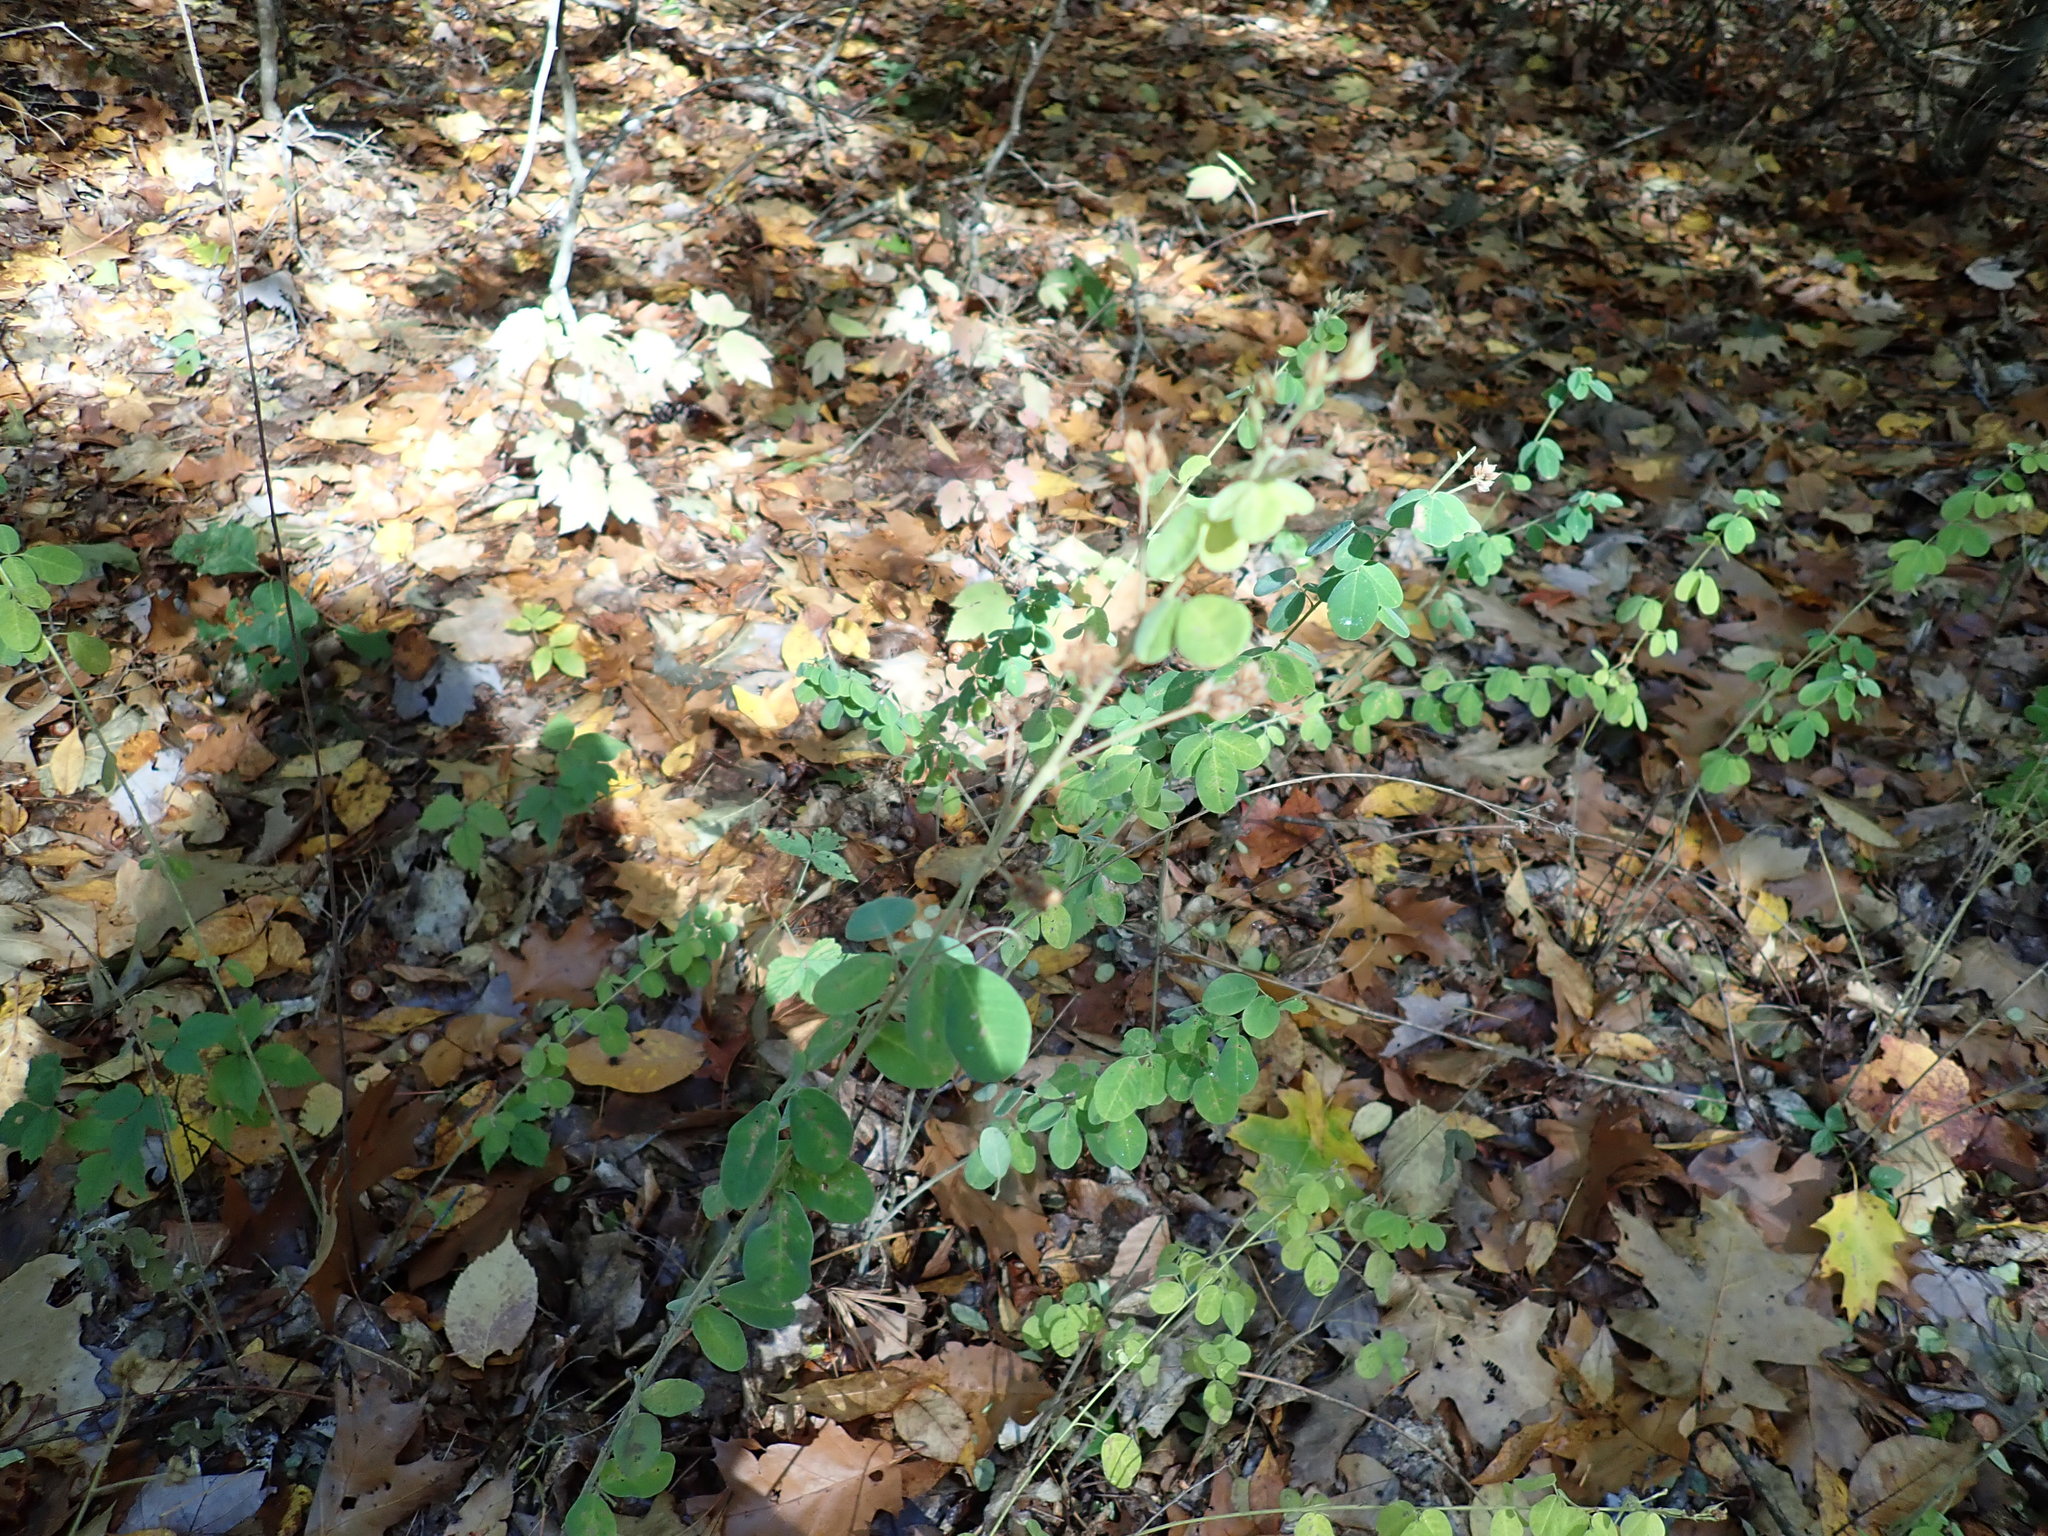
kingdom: Plantae
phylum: Tracheophyta
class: Magnoliopsida
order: Fabales
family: Fabaceae
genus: Lespedeza
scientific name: Lespedeza hirta
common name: Hairy lespedeza
